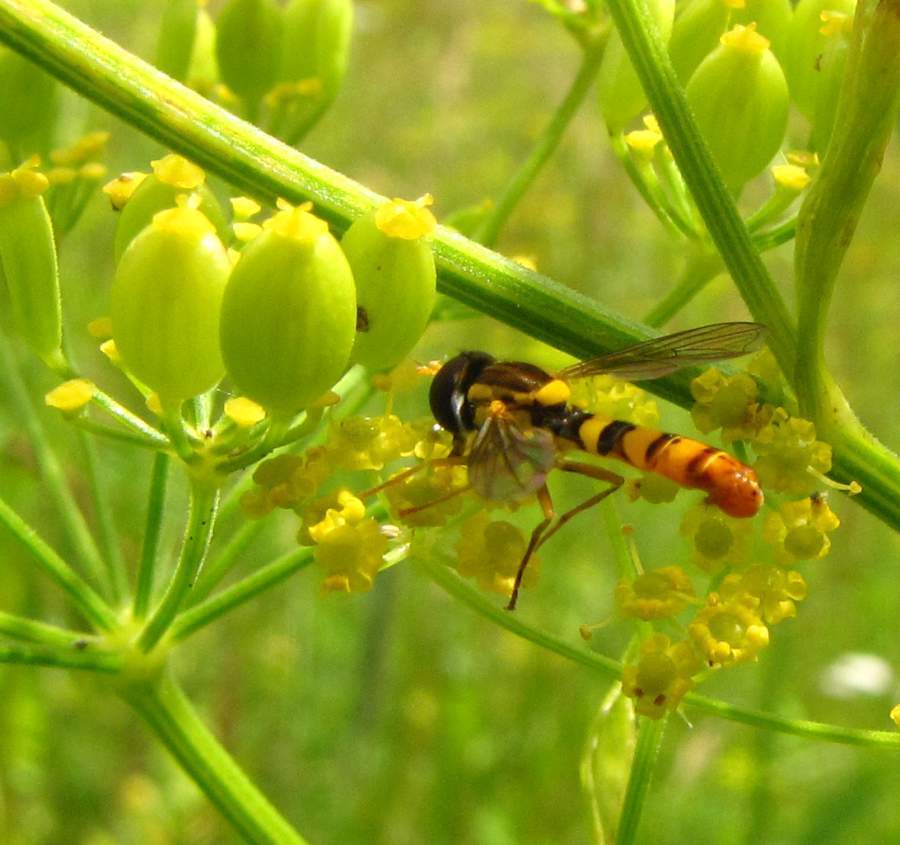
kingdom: Animalia
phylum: Arthropoda
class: Insecta
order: Diptera
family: Syrphidae
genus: Sphaerophoria
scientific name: Sphaerophoria
